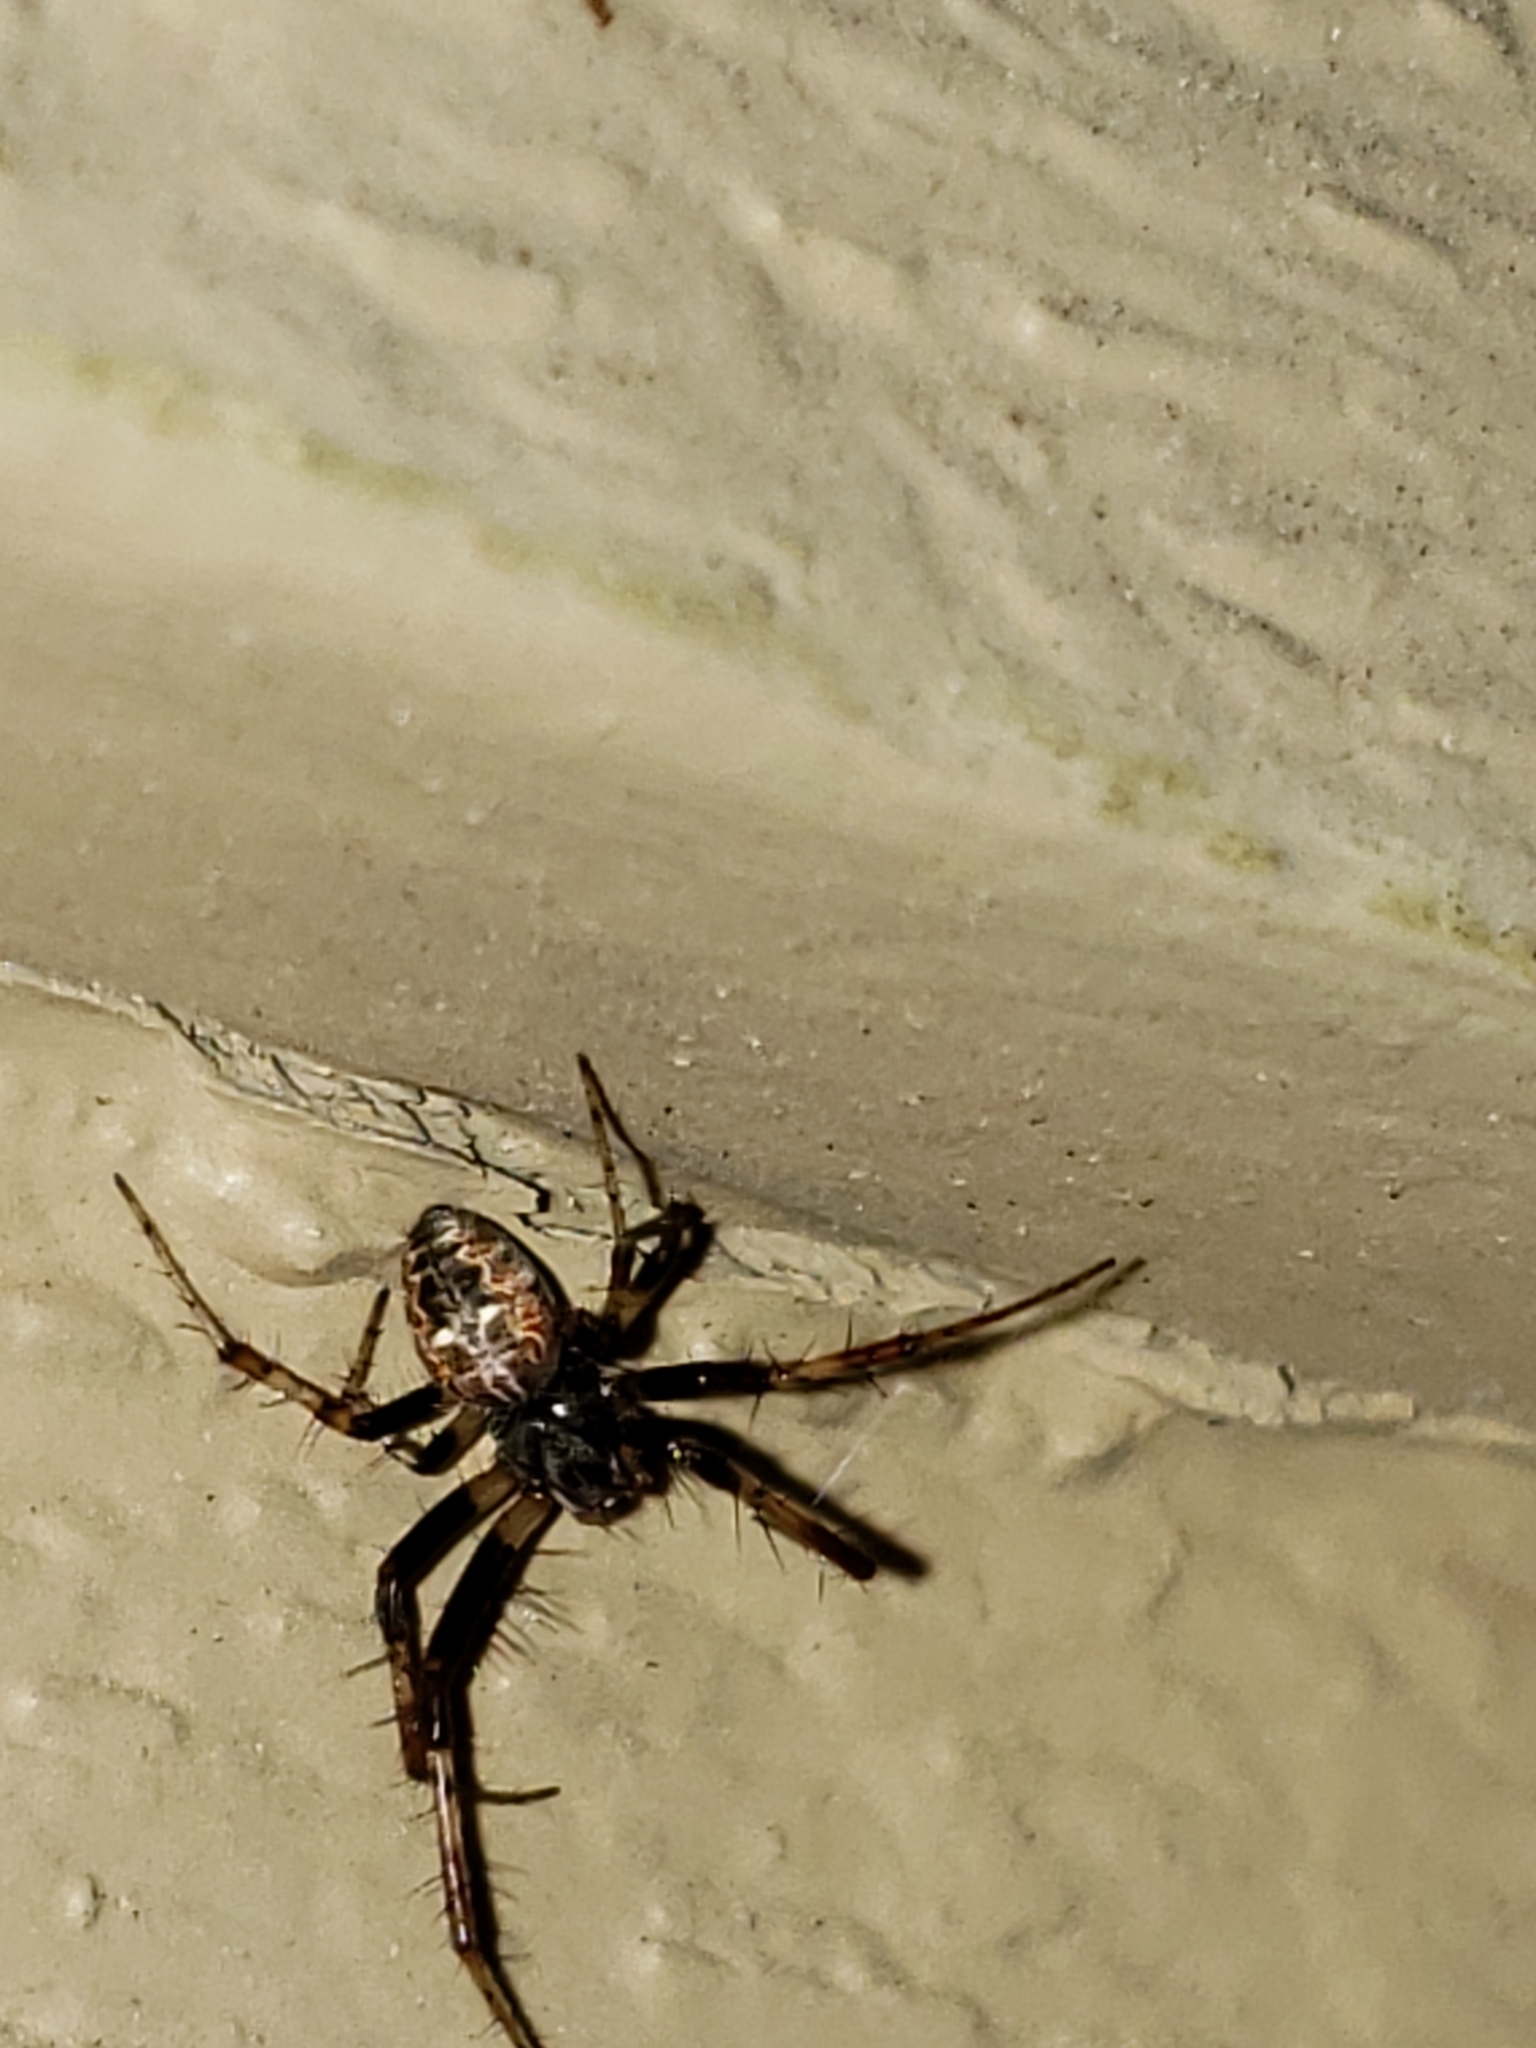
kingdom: Animalia
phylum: Arthropoda
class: Arachnida
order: Araneae
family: Araneidae
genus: Metepeira
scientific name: Metepeira labyrinthea
